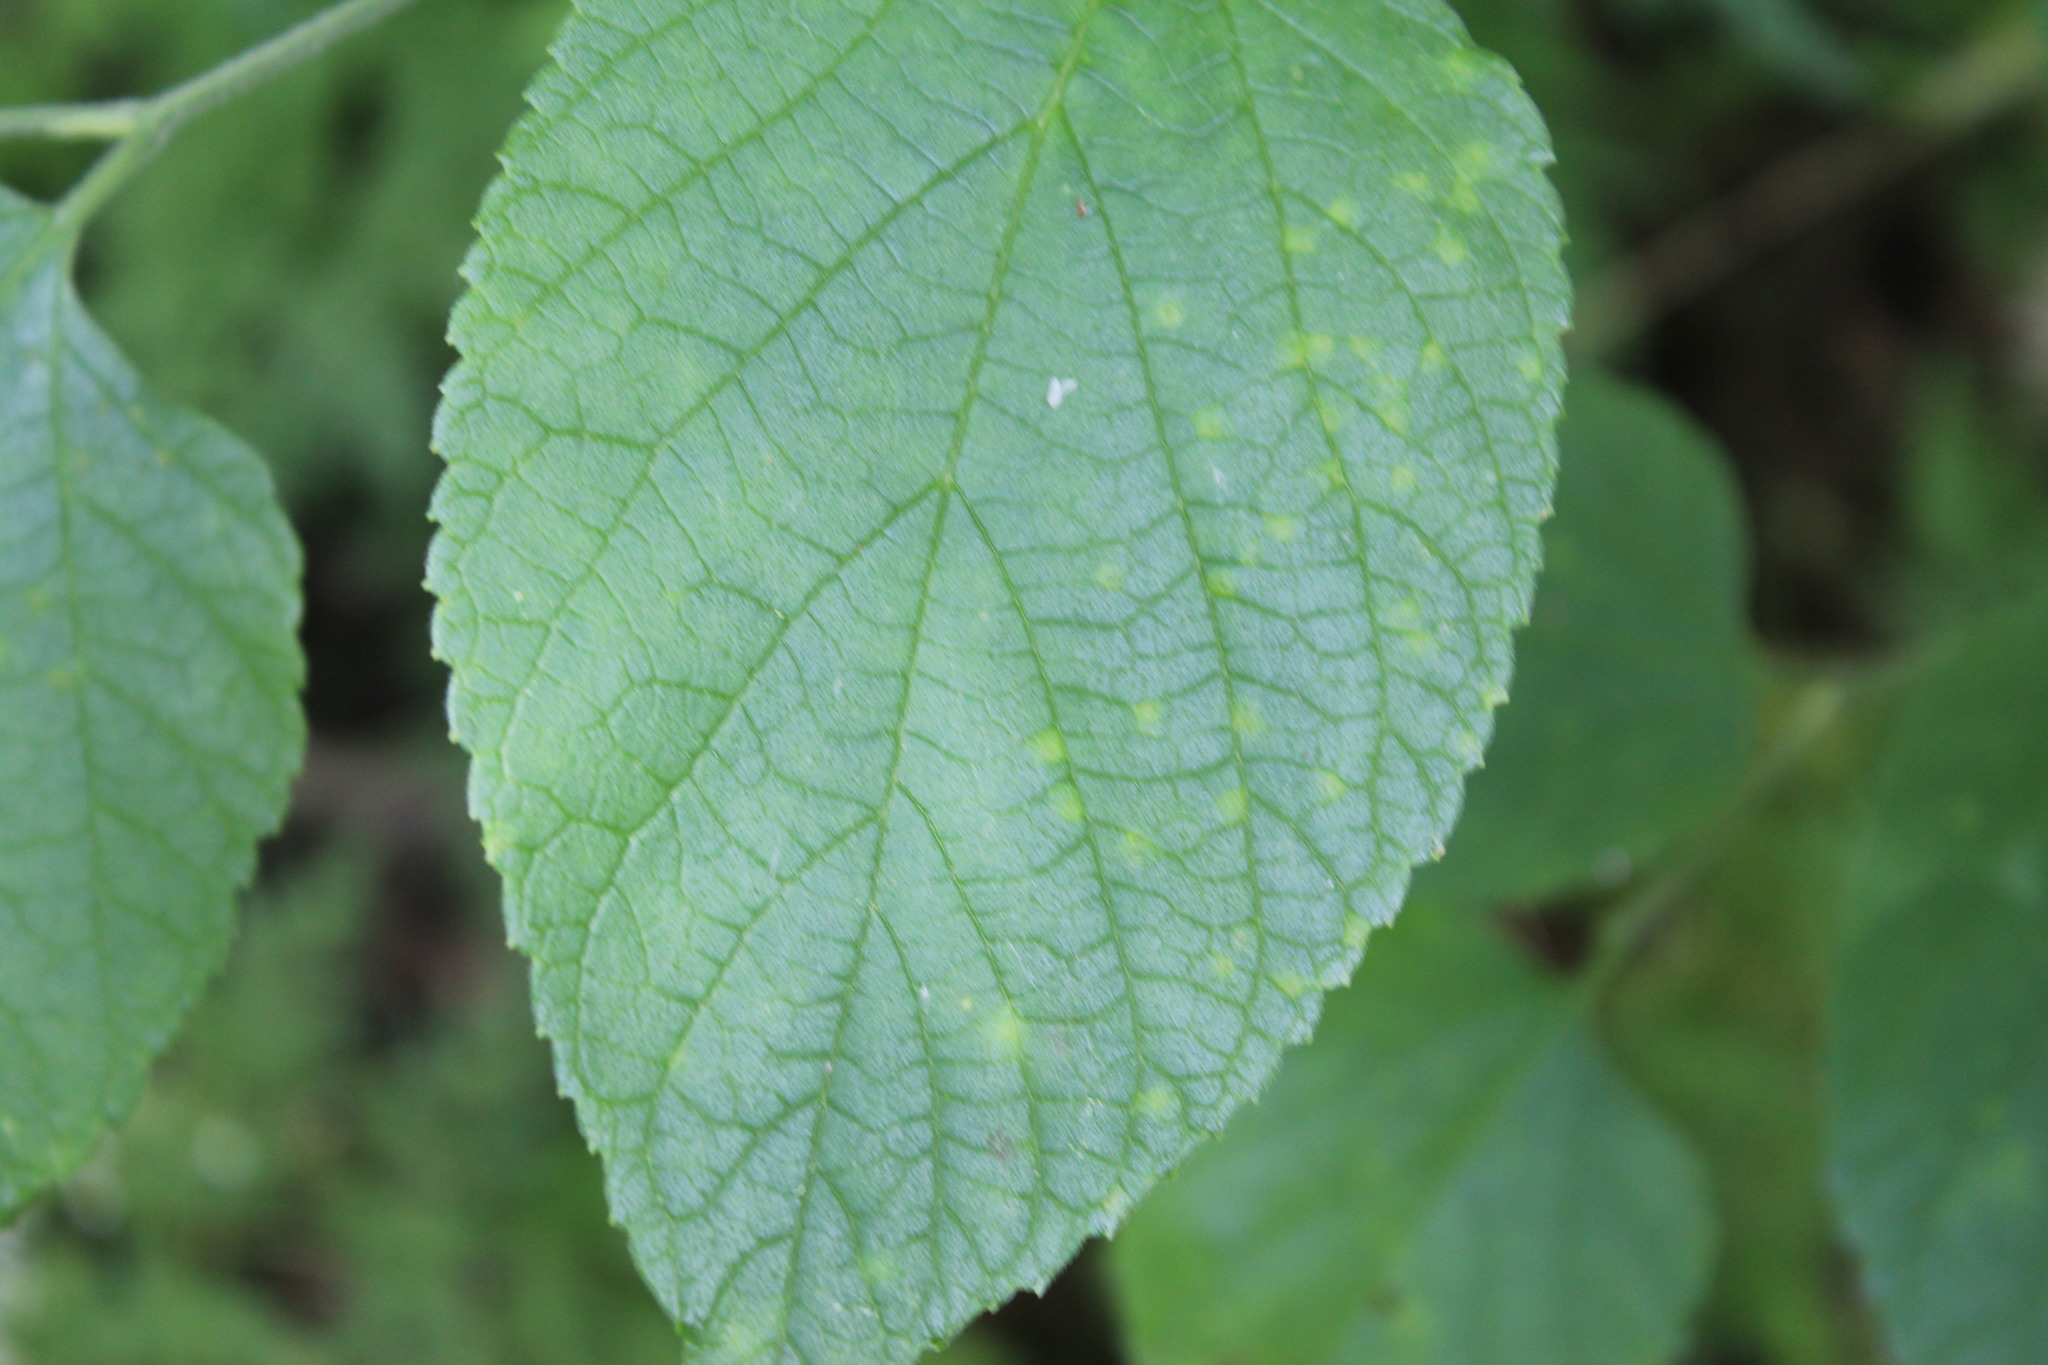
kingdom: Plantae
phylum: Tracheophyta
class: Magnoliopsida
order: Rosales
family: Cannabaceae
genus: Celtis
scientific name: Celtis occidentalis
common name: Common hackberry
